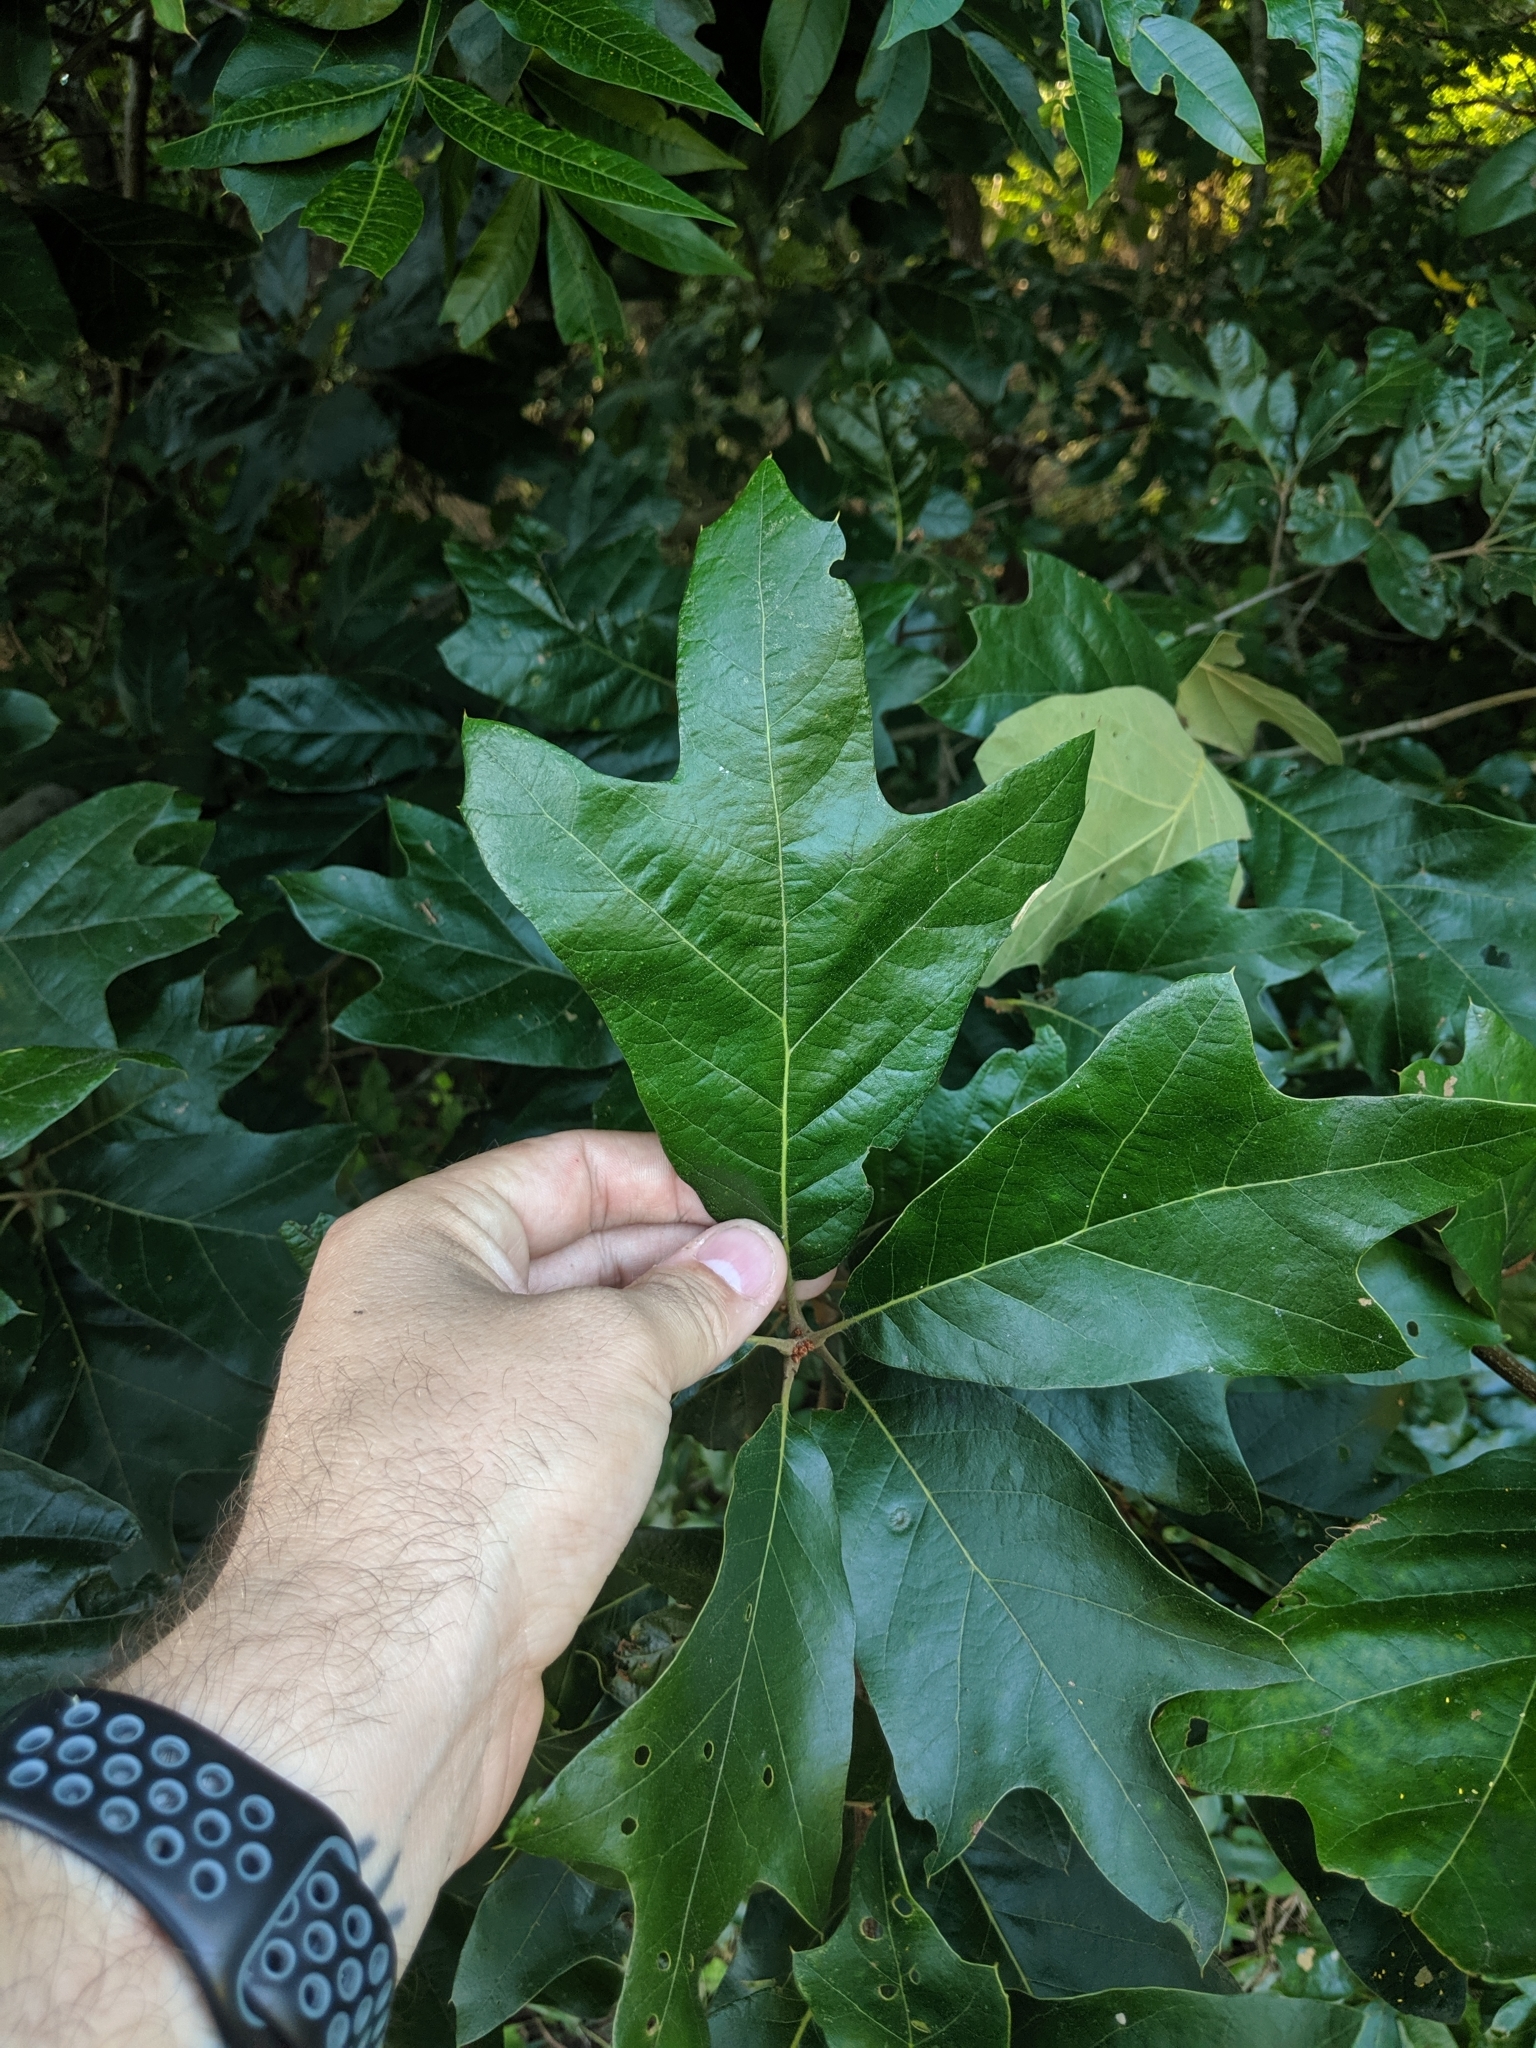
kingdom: Plantae
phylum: Tracheophyta
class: Magnoliopsida
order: Fagales
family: Fagaceae
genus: Quercus
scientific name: Quercus falcata
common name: Southern red oak
